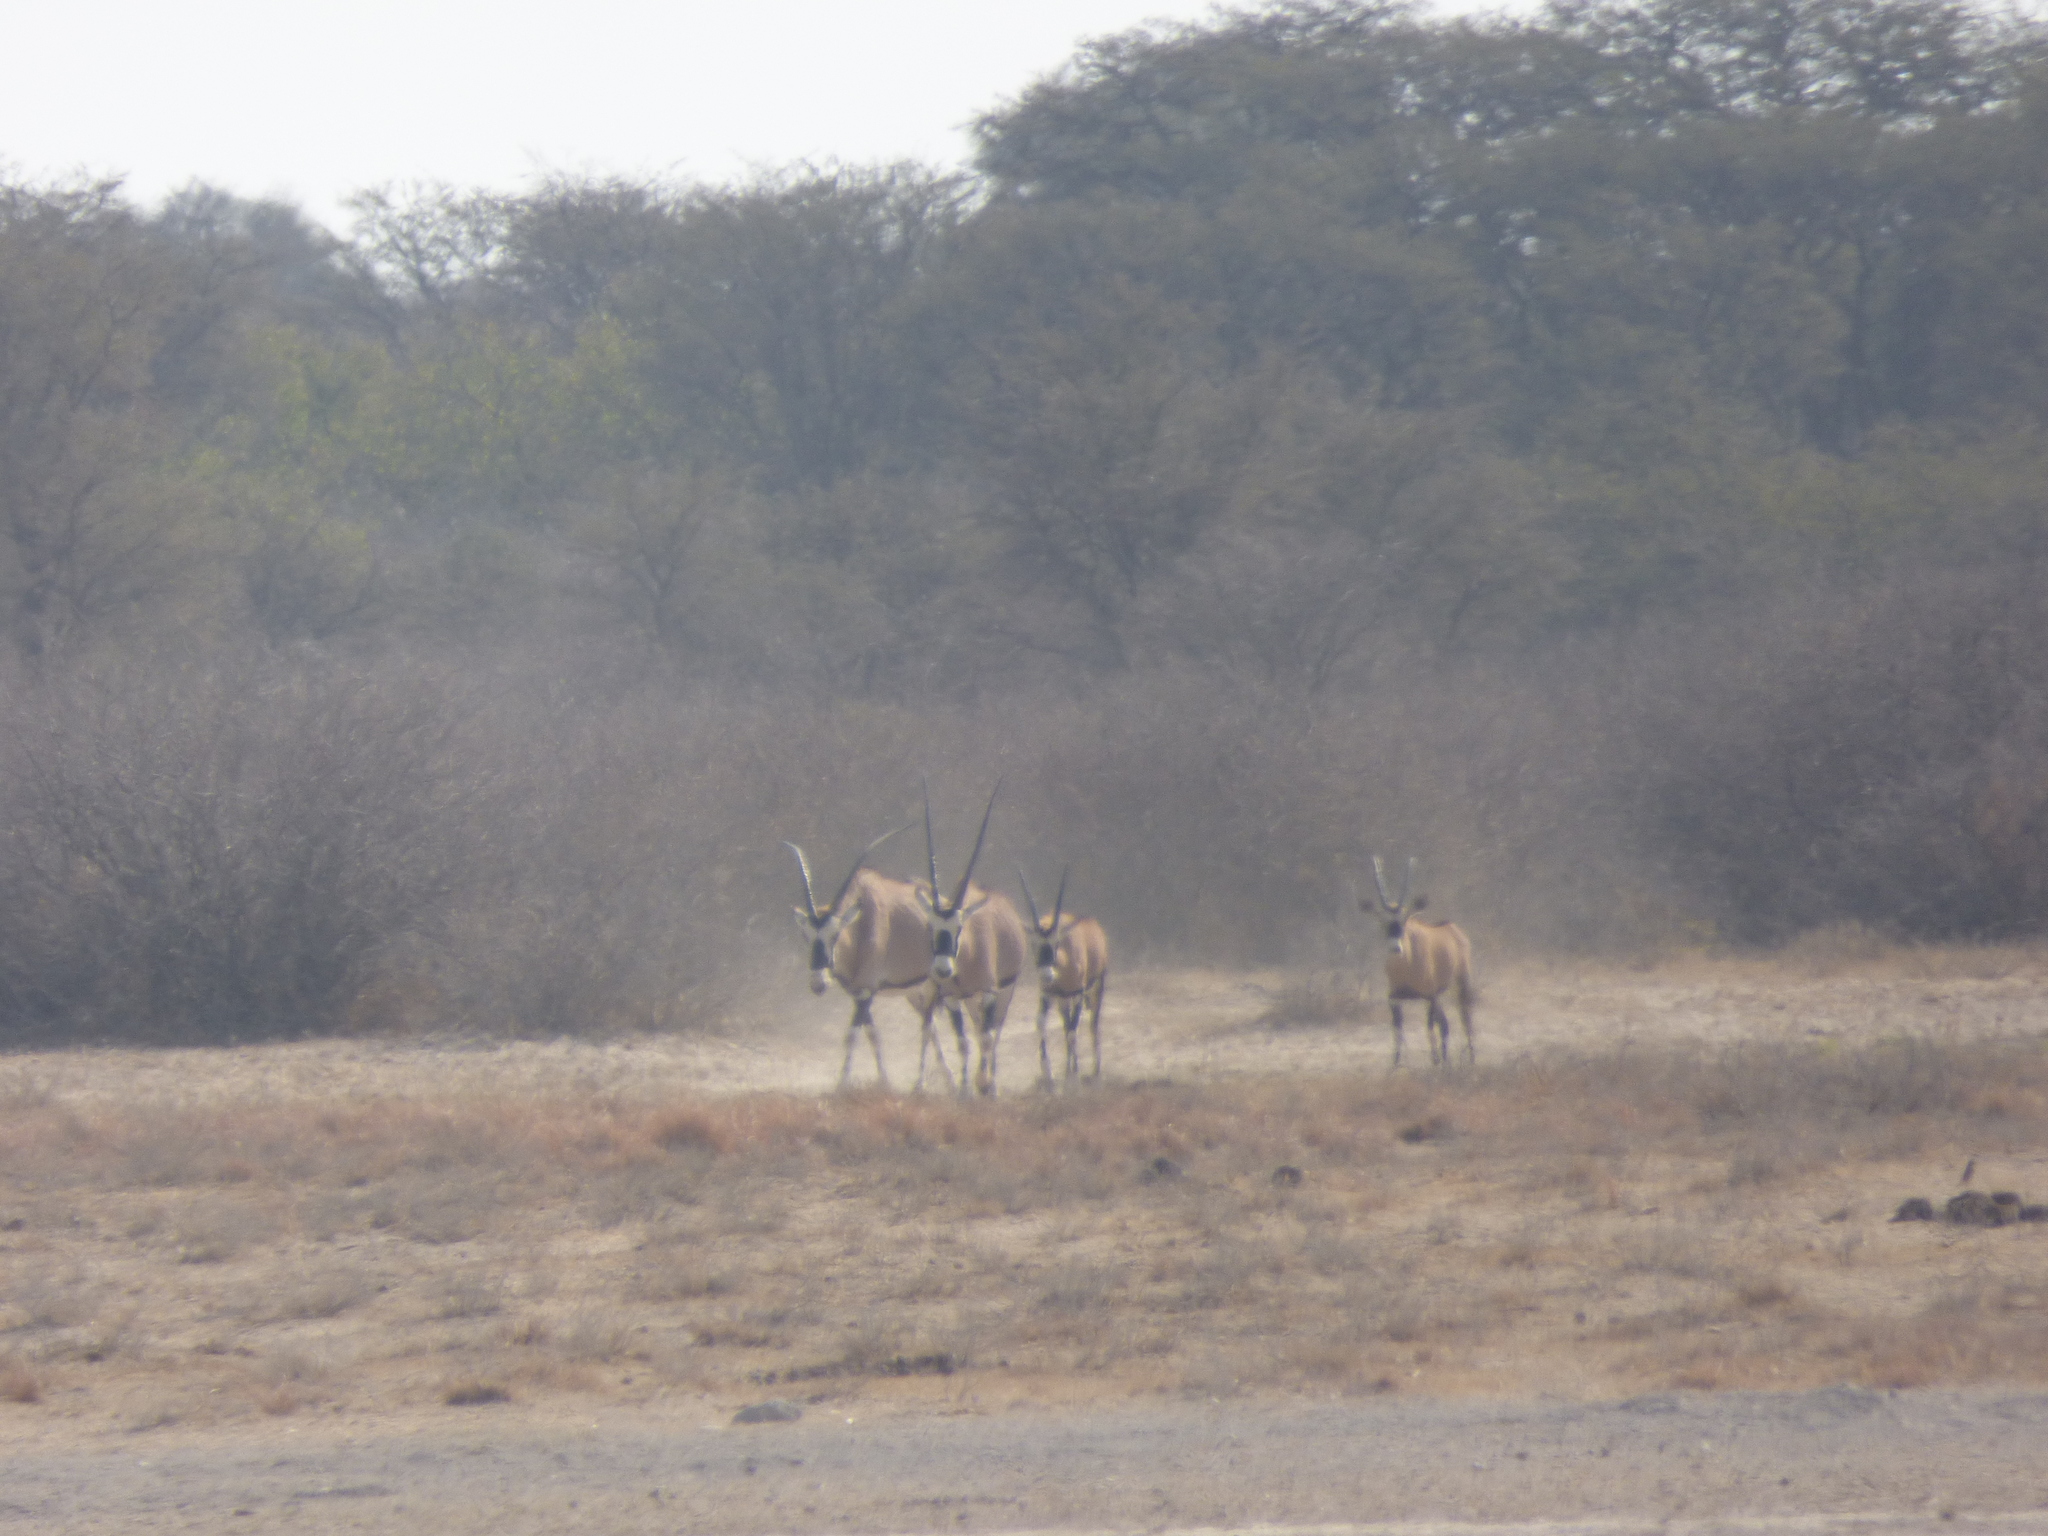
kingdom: Animalia
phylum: Chordata
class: Mammalia
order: Artiodactyla
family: Bovidae
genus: Oryx
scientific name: Oryx gazella
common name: Gemsbok
